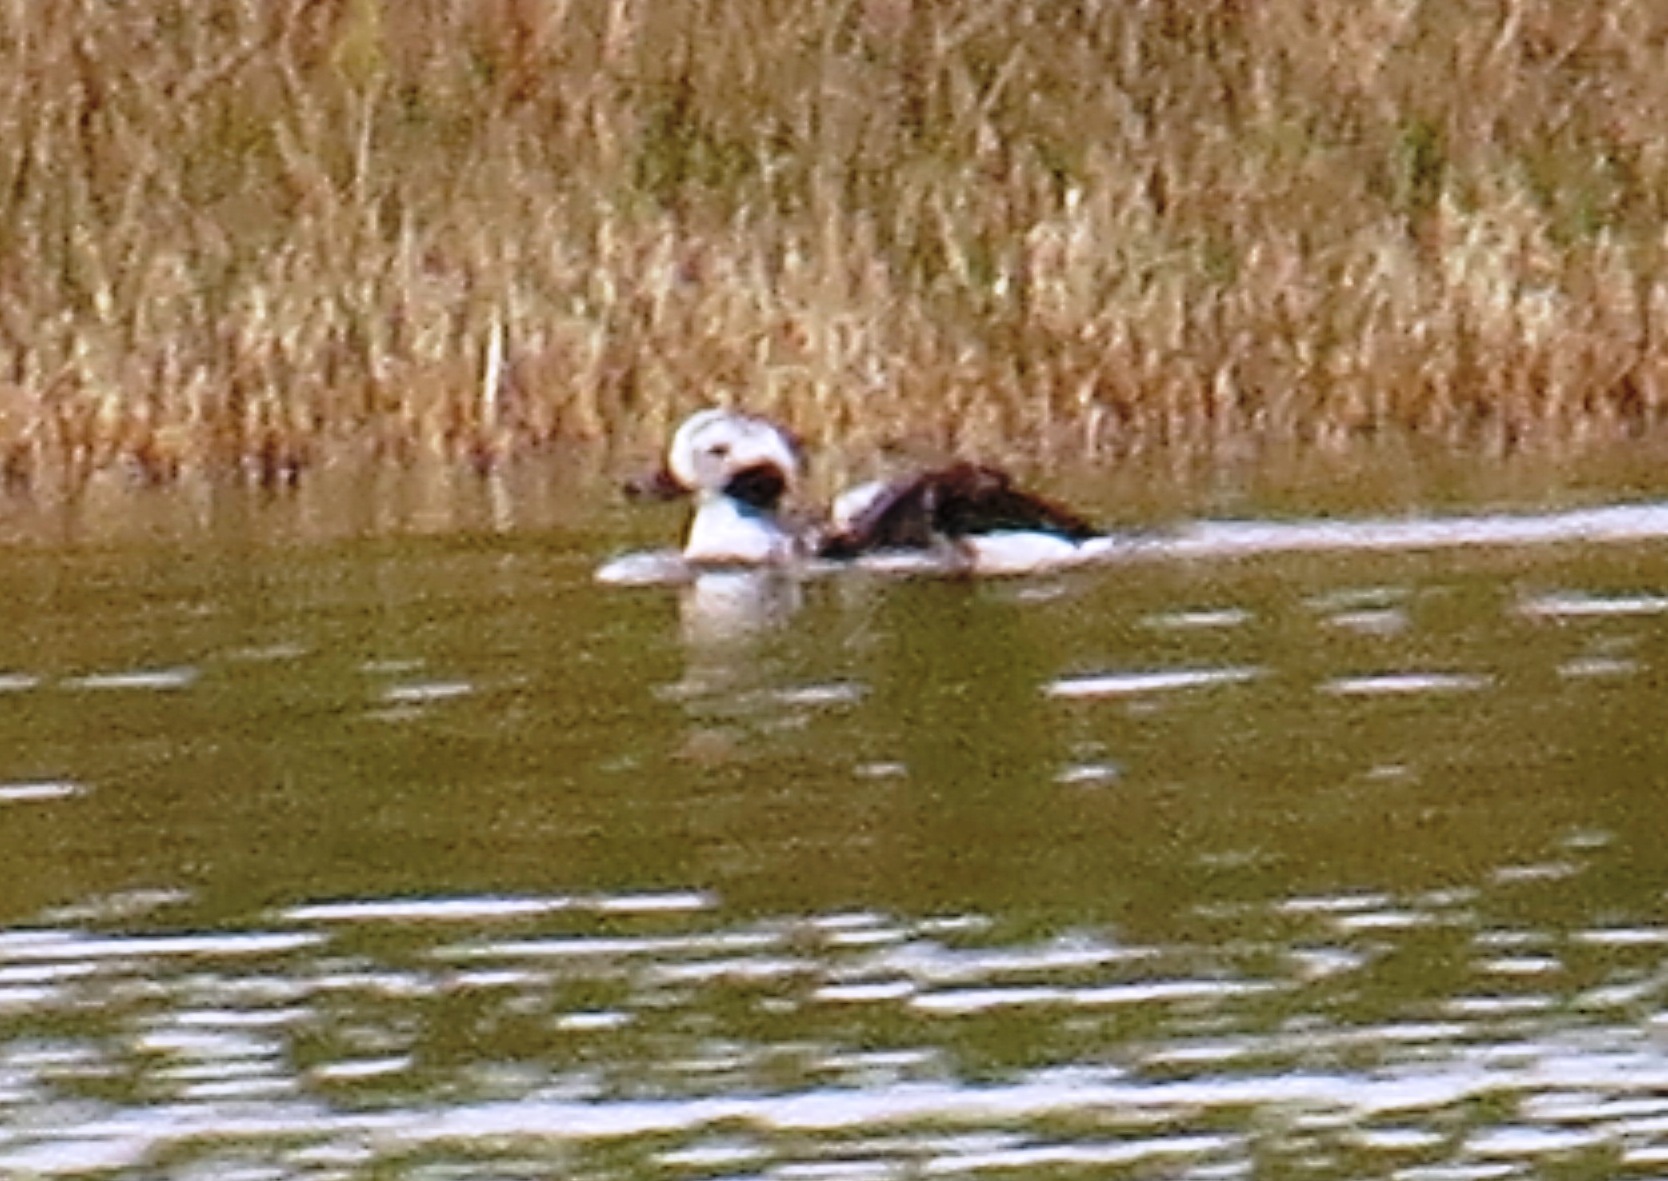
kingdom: Animalia
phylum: Chordata
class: Aves
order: Anseriformes
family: Anatidae
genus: Clangula
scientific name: Clangula hyemalis
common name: Long-tailed duck
